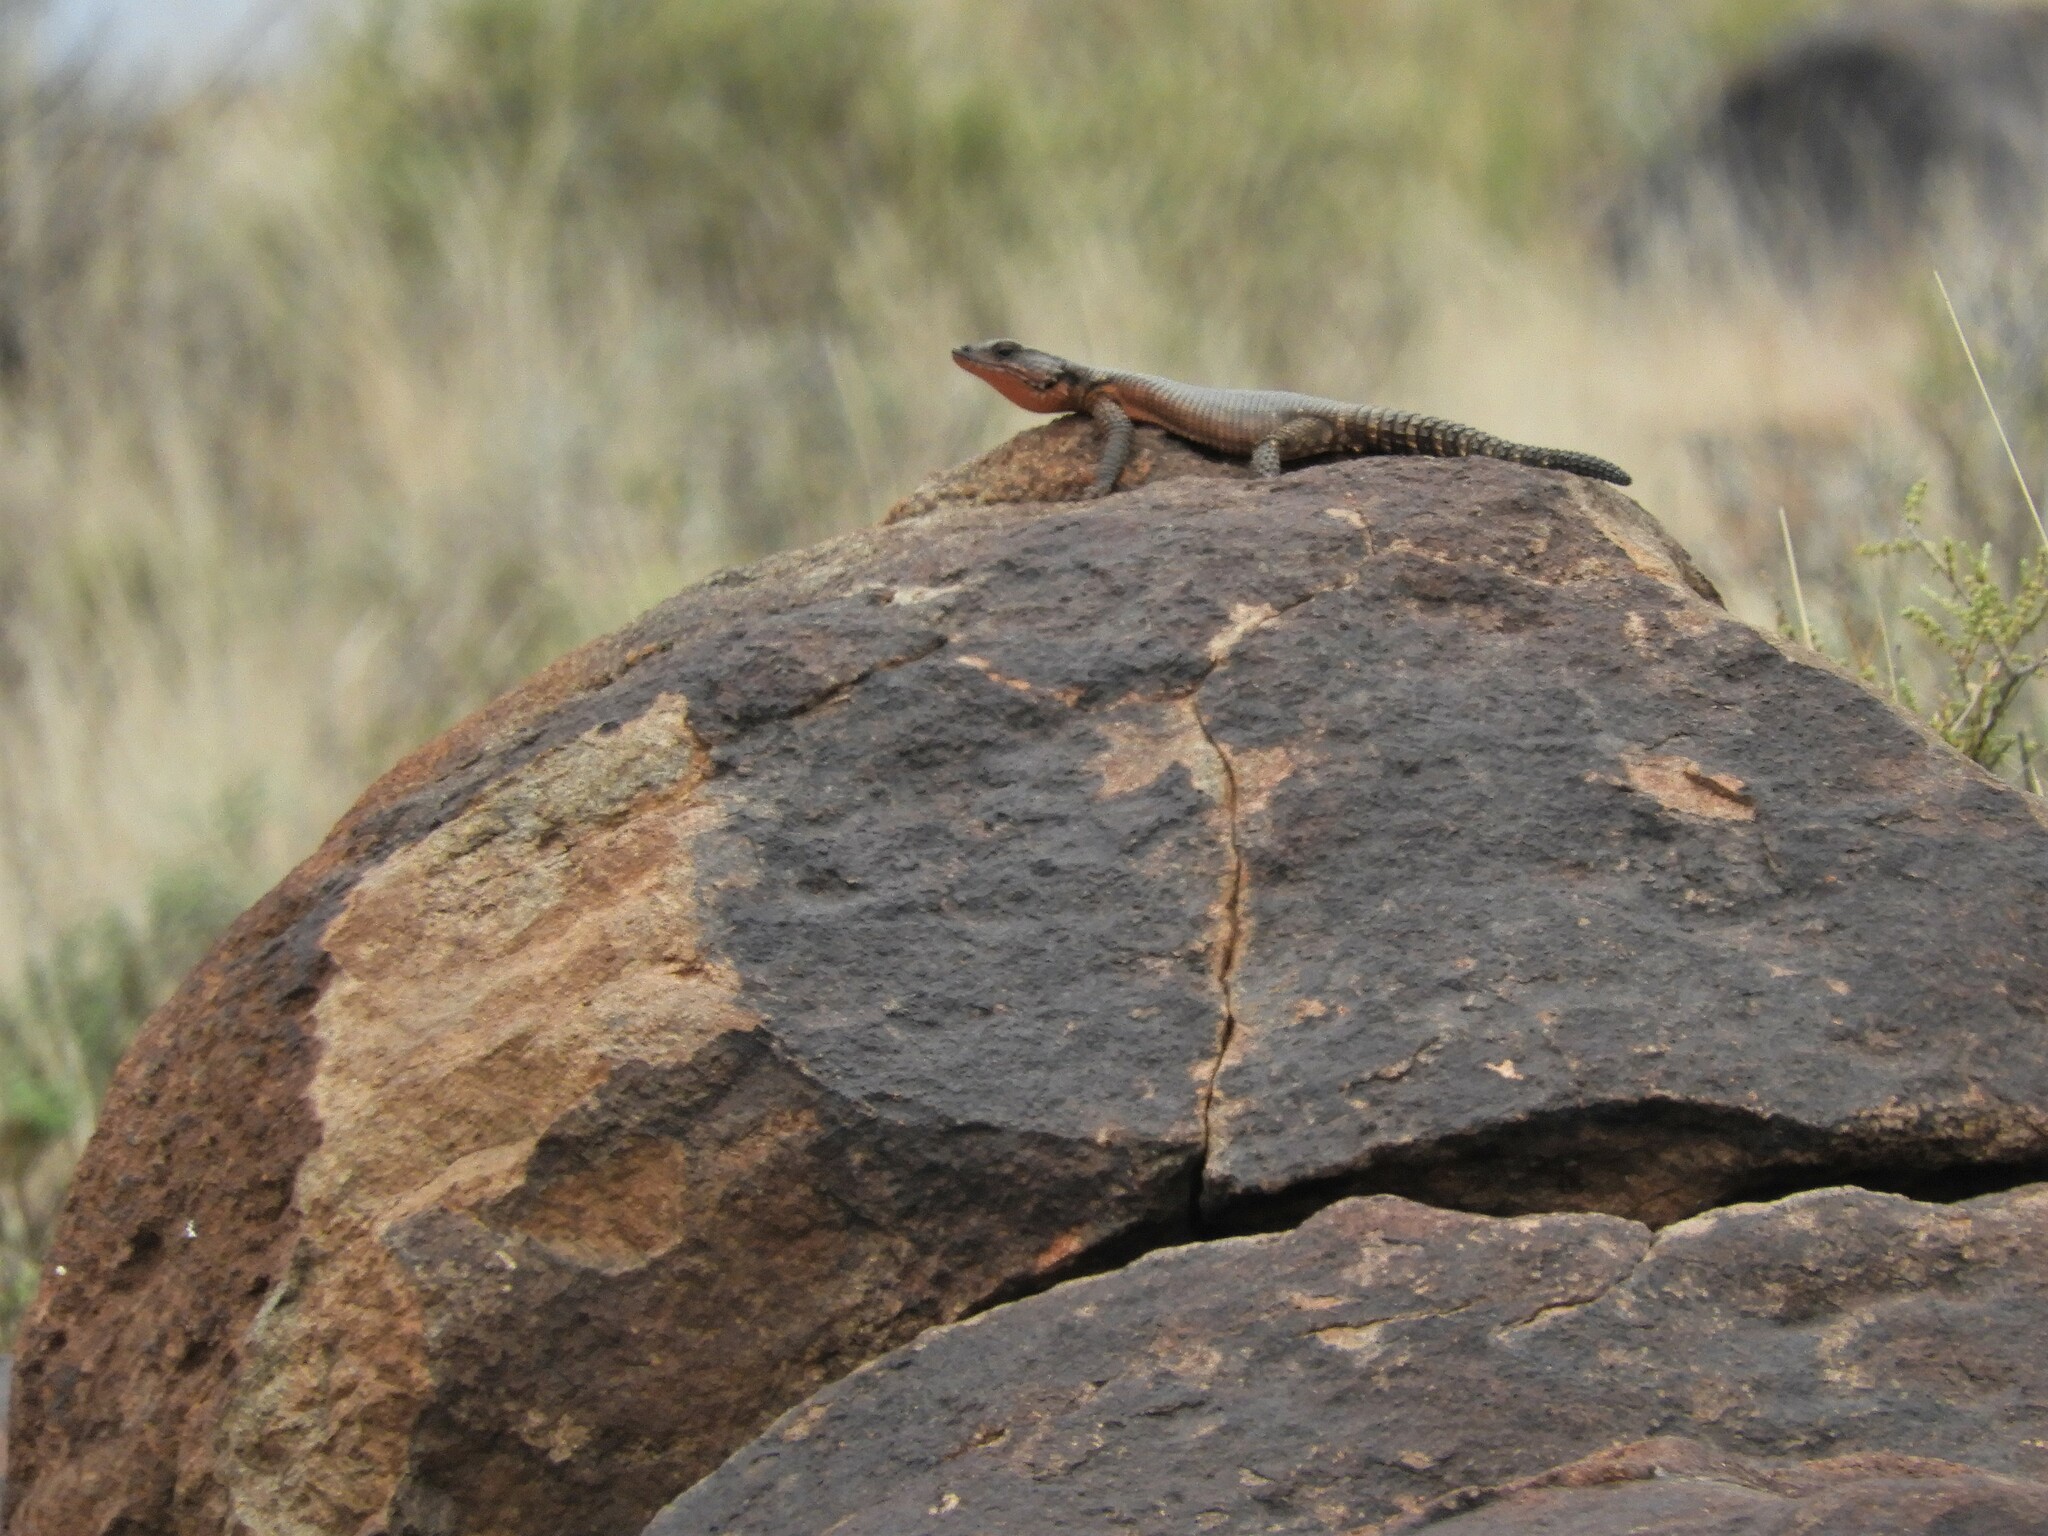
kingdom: Animalia
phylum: Chordata
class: Squamata
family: Cordylidae
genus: Karusasaurus
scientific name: Karusasaurus polyzonus
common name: Karoo girdled lizard
